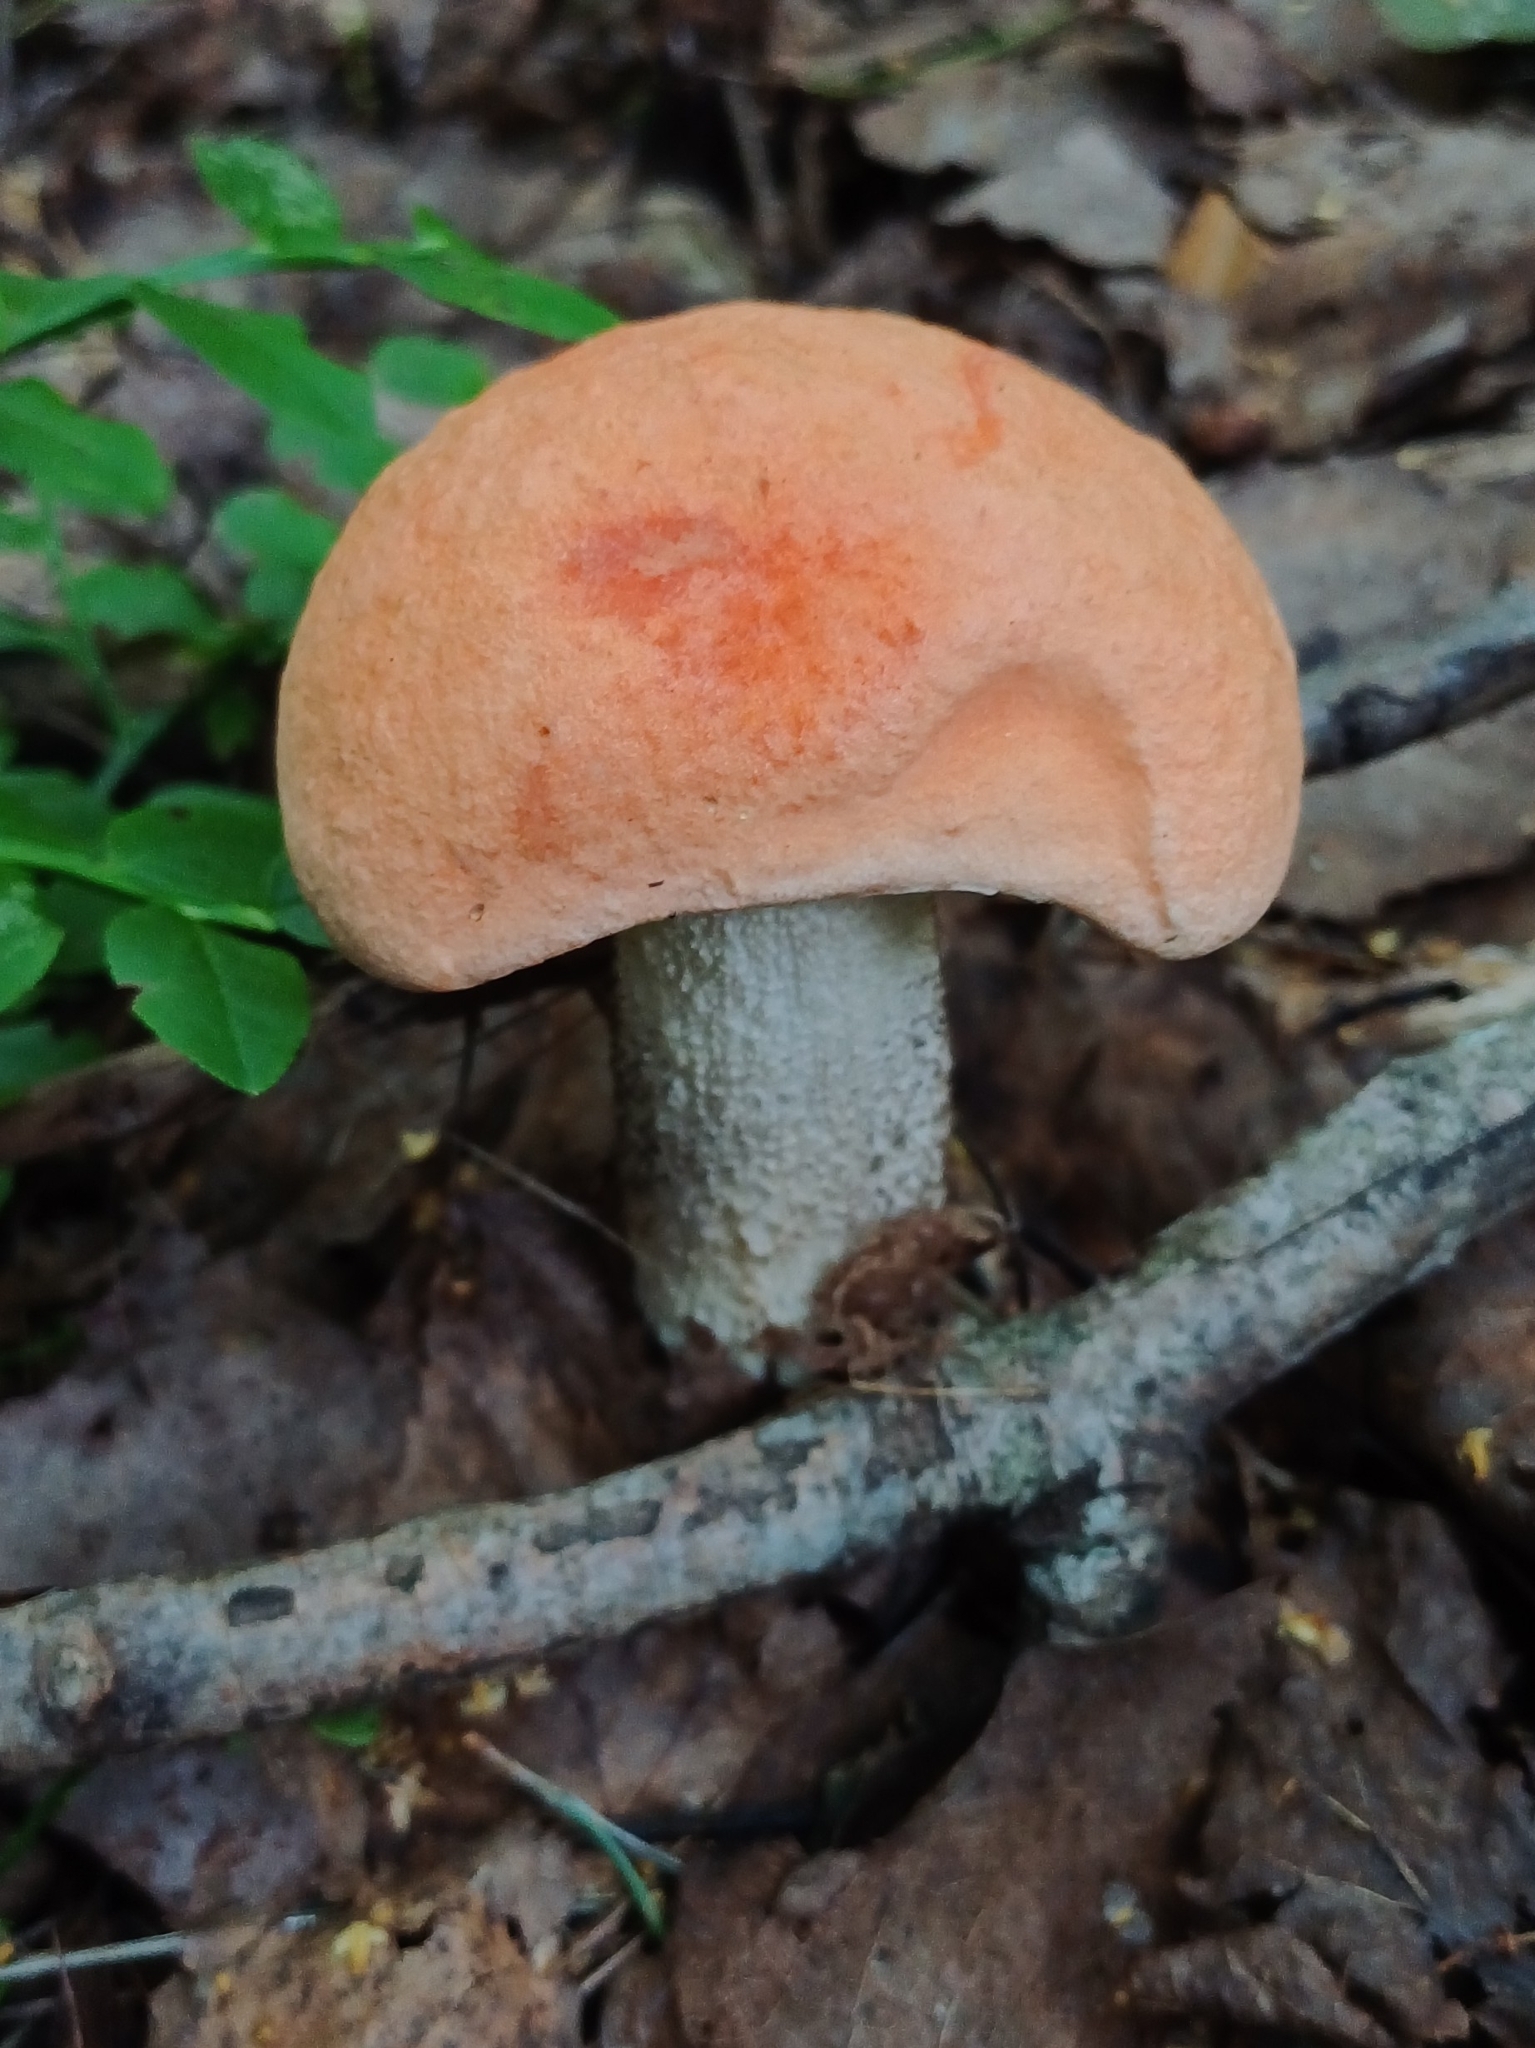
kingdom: Fungi
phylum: Basidiomycota
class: Agaricomycetes
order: Boletales
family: Boletaceae
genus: Leccinum
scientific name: Leccinum albostipitatum
